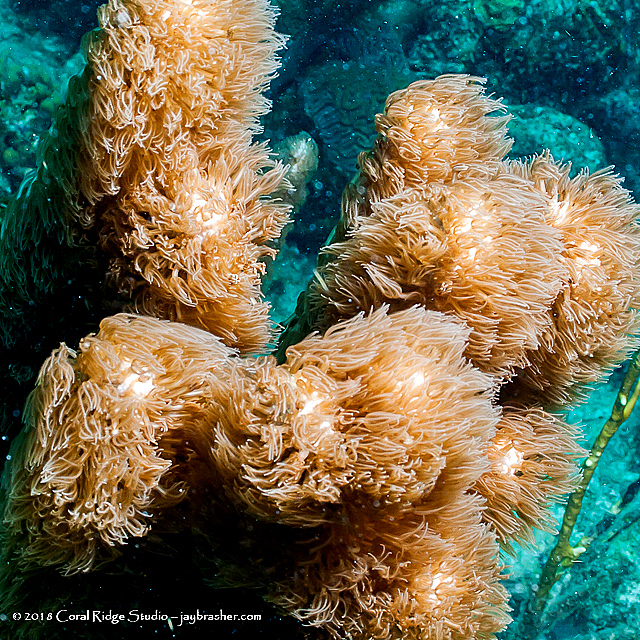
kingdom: Animalia
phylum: Cnidaria
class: Anthozoa
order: Scleralcyonacea
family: Briareidae
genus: Briareum
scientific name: Briareum asbestinum
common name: Corky sea finger
